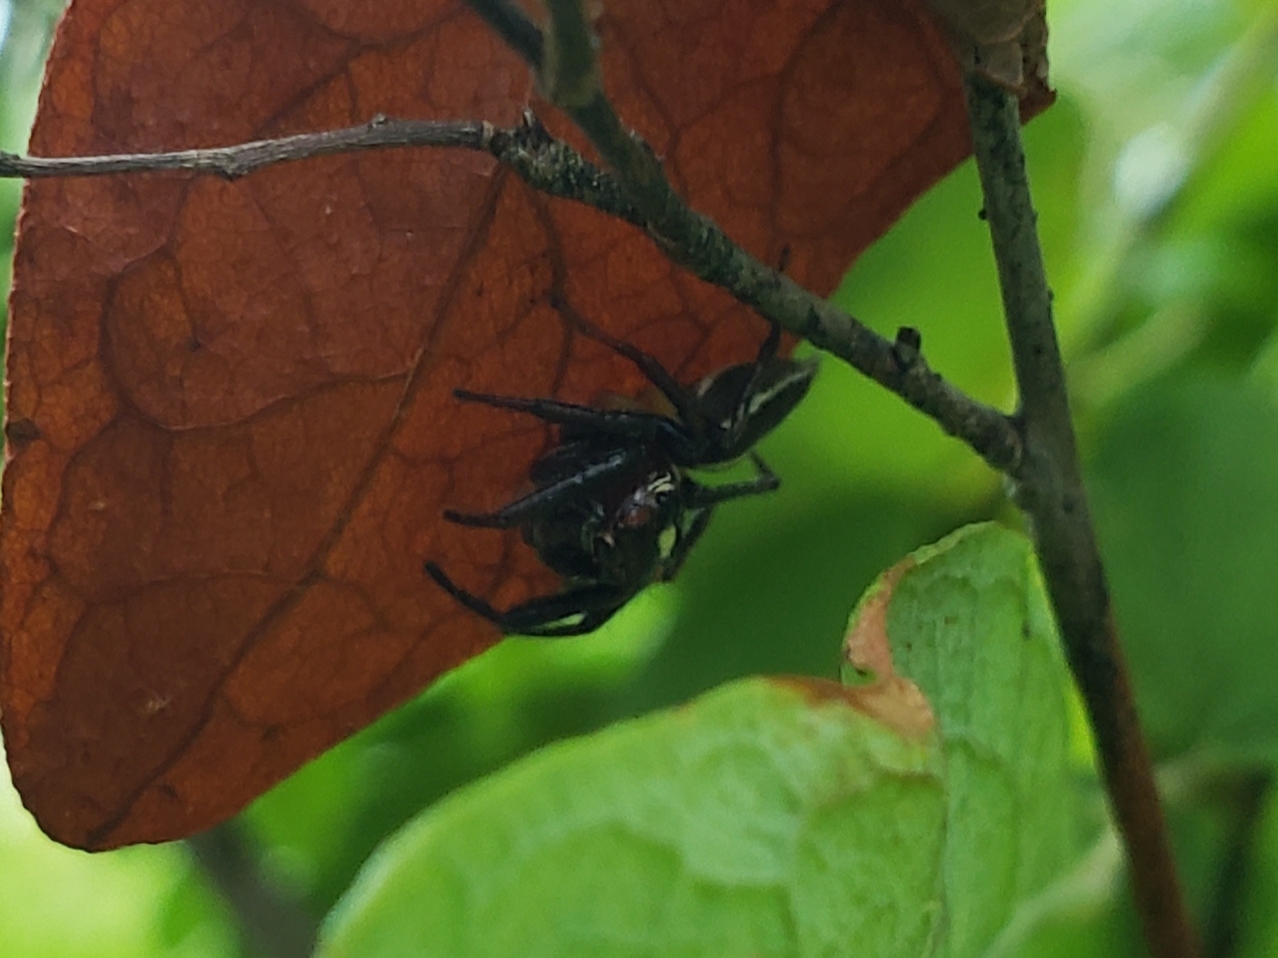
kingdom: Animalia
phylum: Arthropoda
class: Arachnida
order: Araneae
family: Salticidae
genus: Colonus
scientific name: Colonus sylvanus
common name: Jumping spiders
